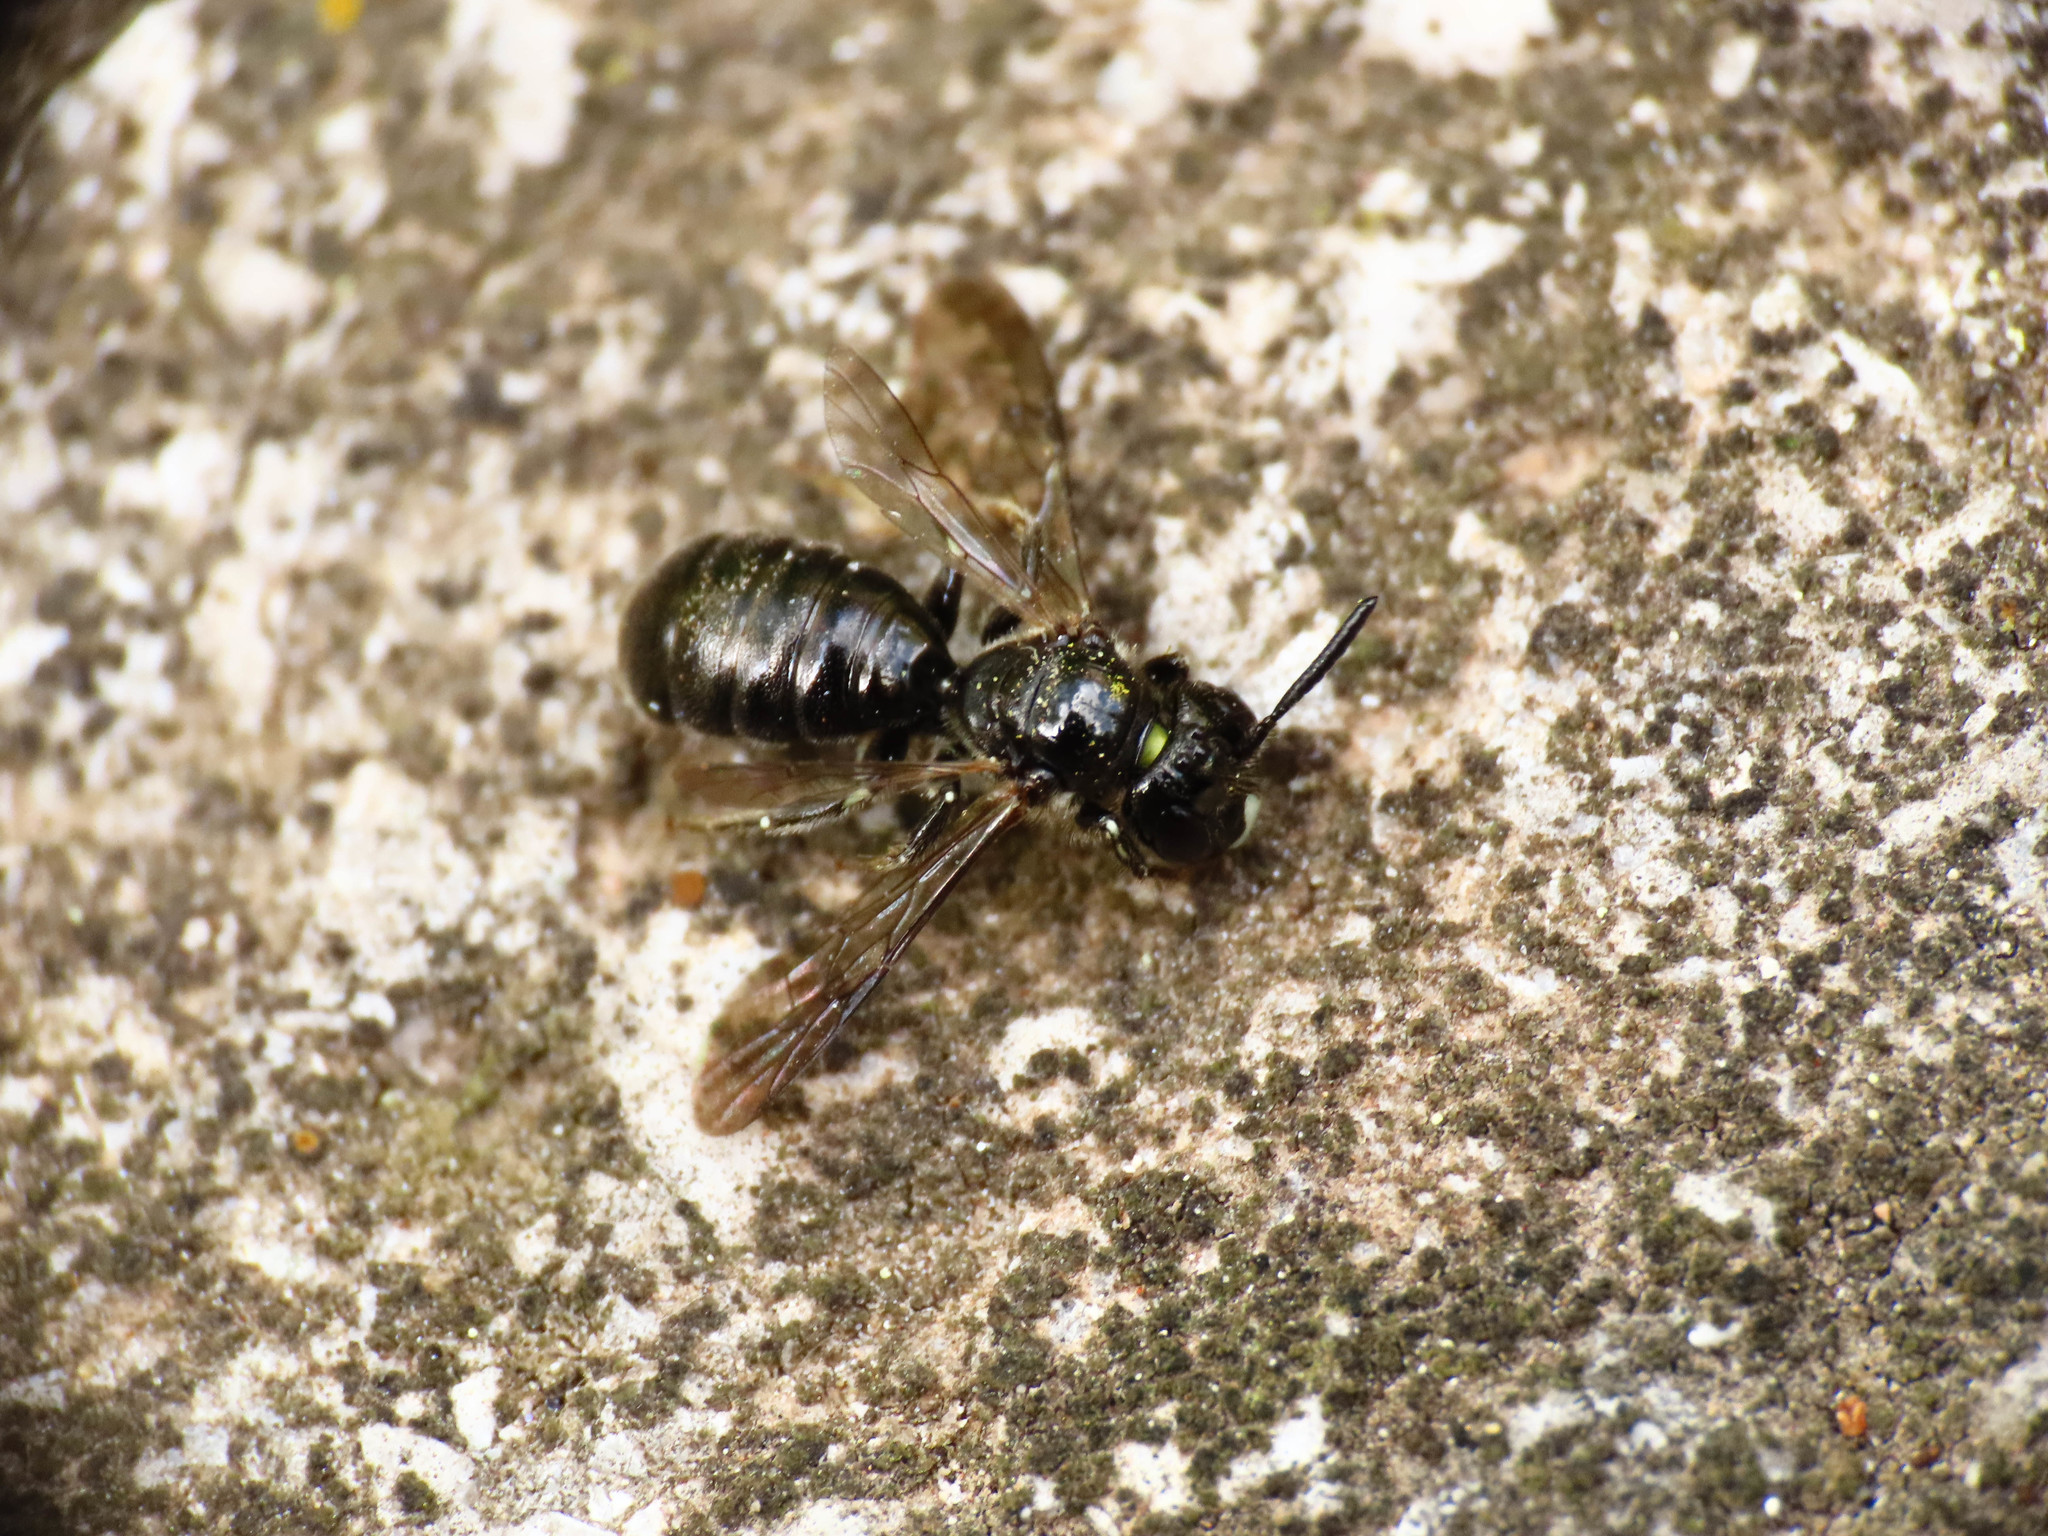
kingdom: Animalia
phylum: Arthropoda
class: Insecta
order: Hymenoptera
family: Apidae
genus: Ceratina
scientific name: Ceratina cucurbitina
